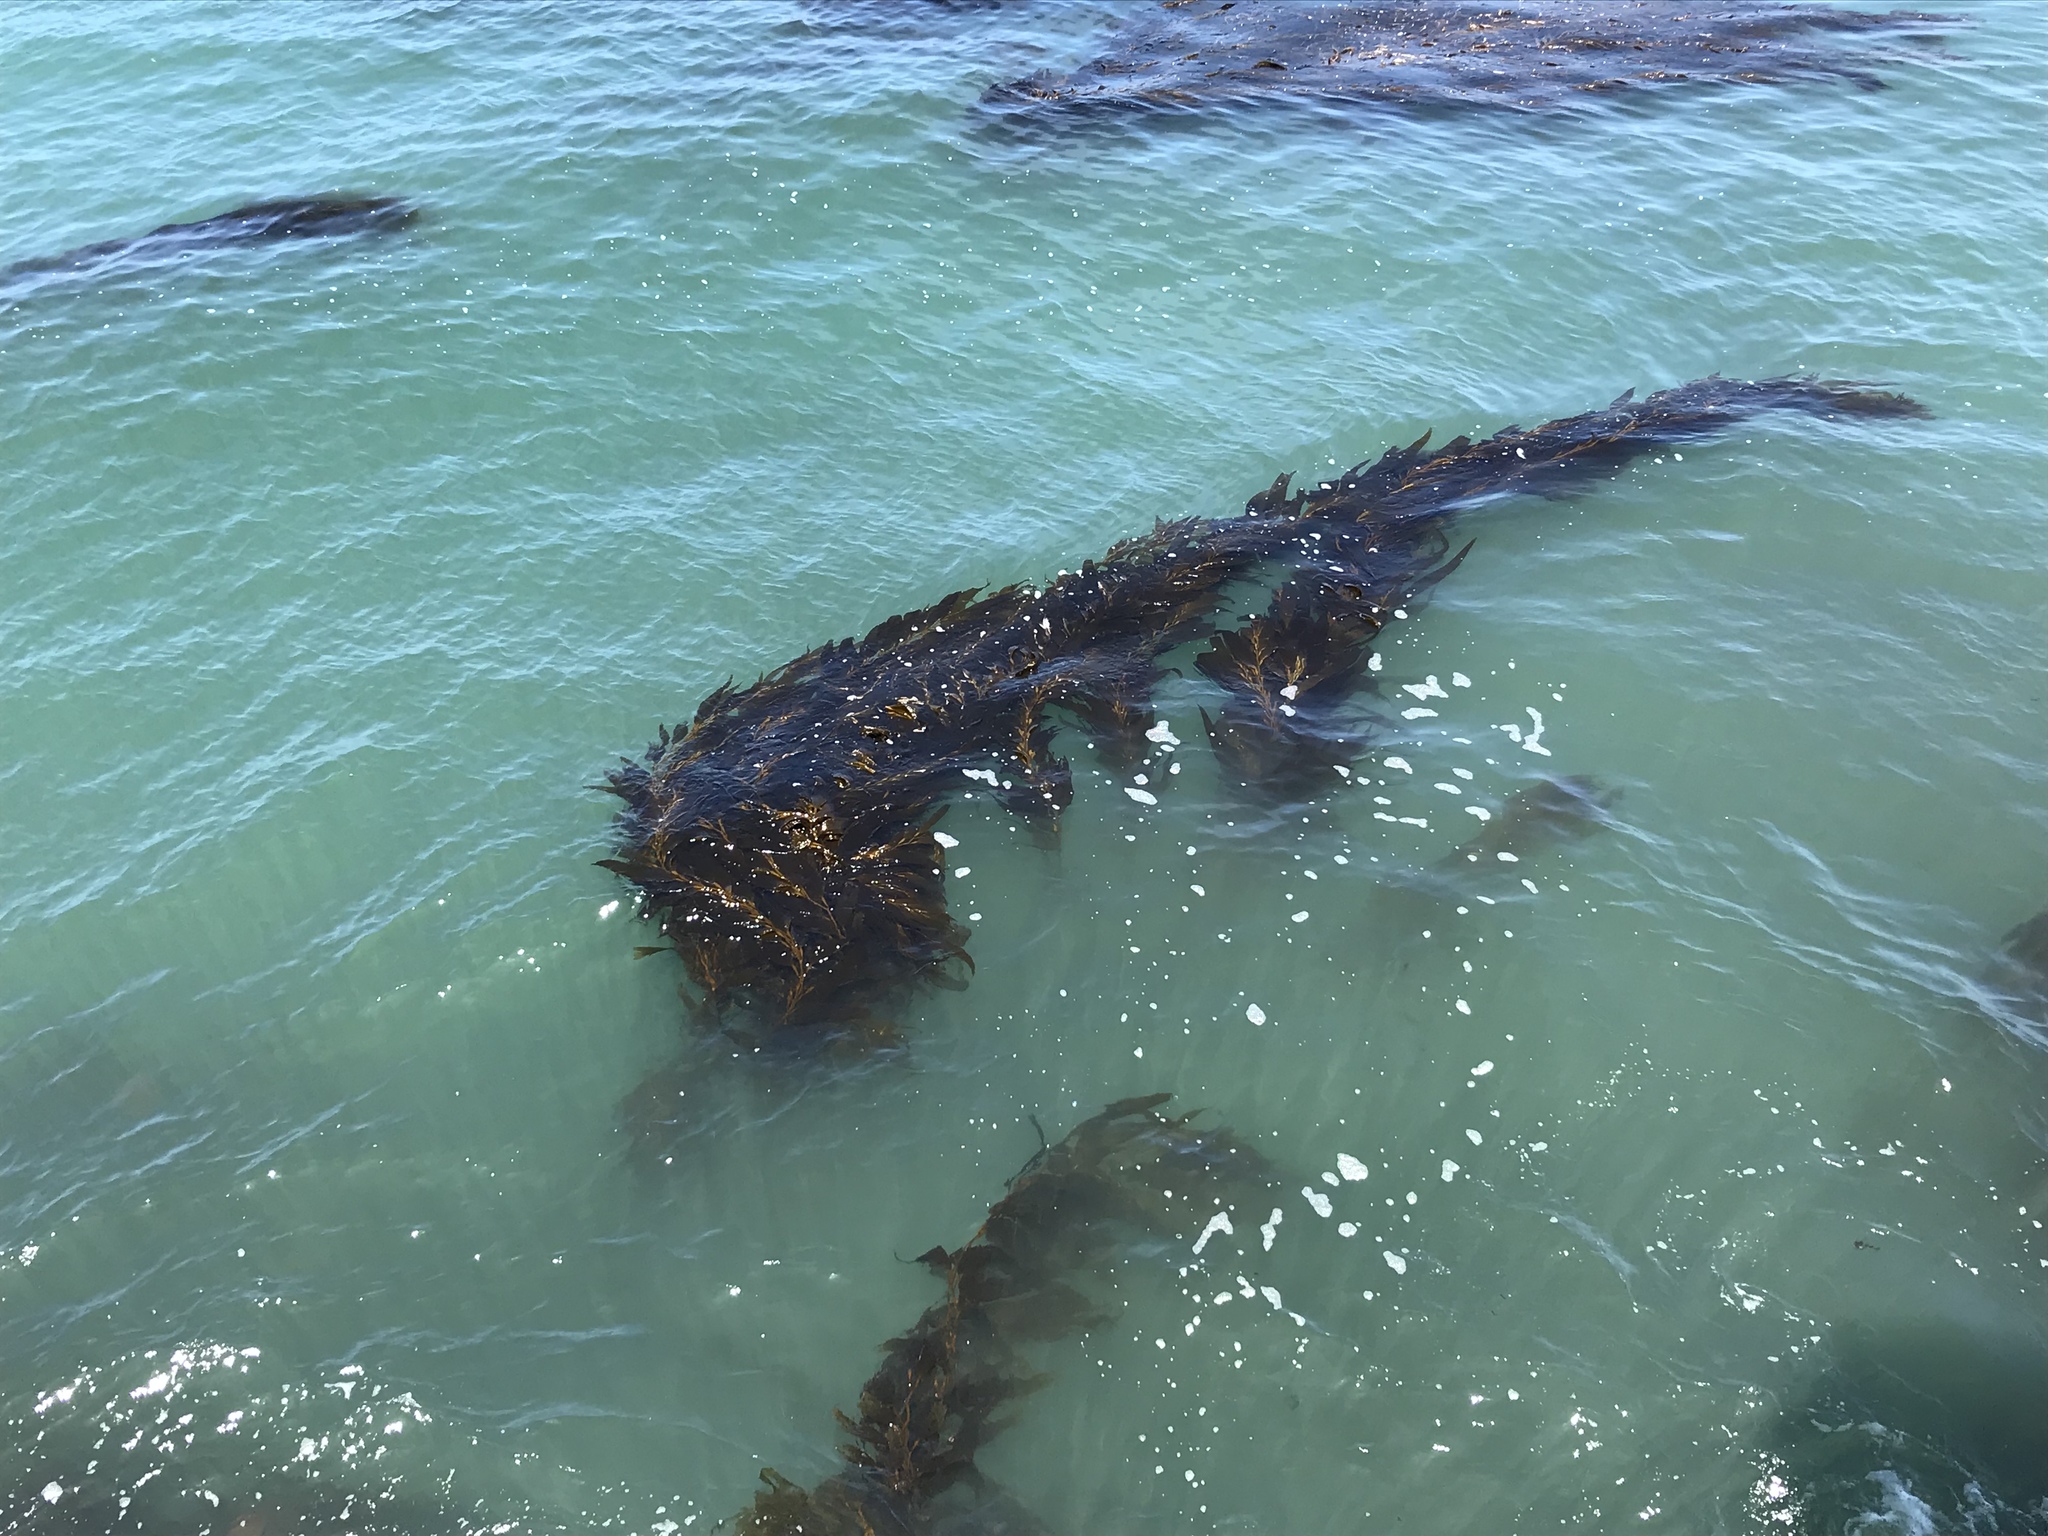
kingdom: Chromista
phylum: Ochrophyta
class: Phaeophyceae
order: Laminariales
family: Laminariaceae
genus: Macrocystis
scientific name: Macrocystis pyrifera
